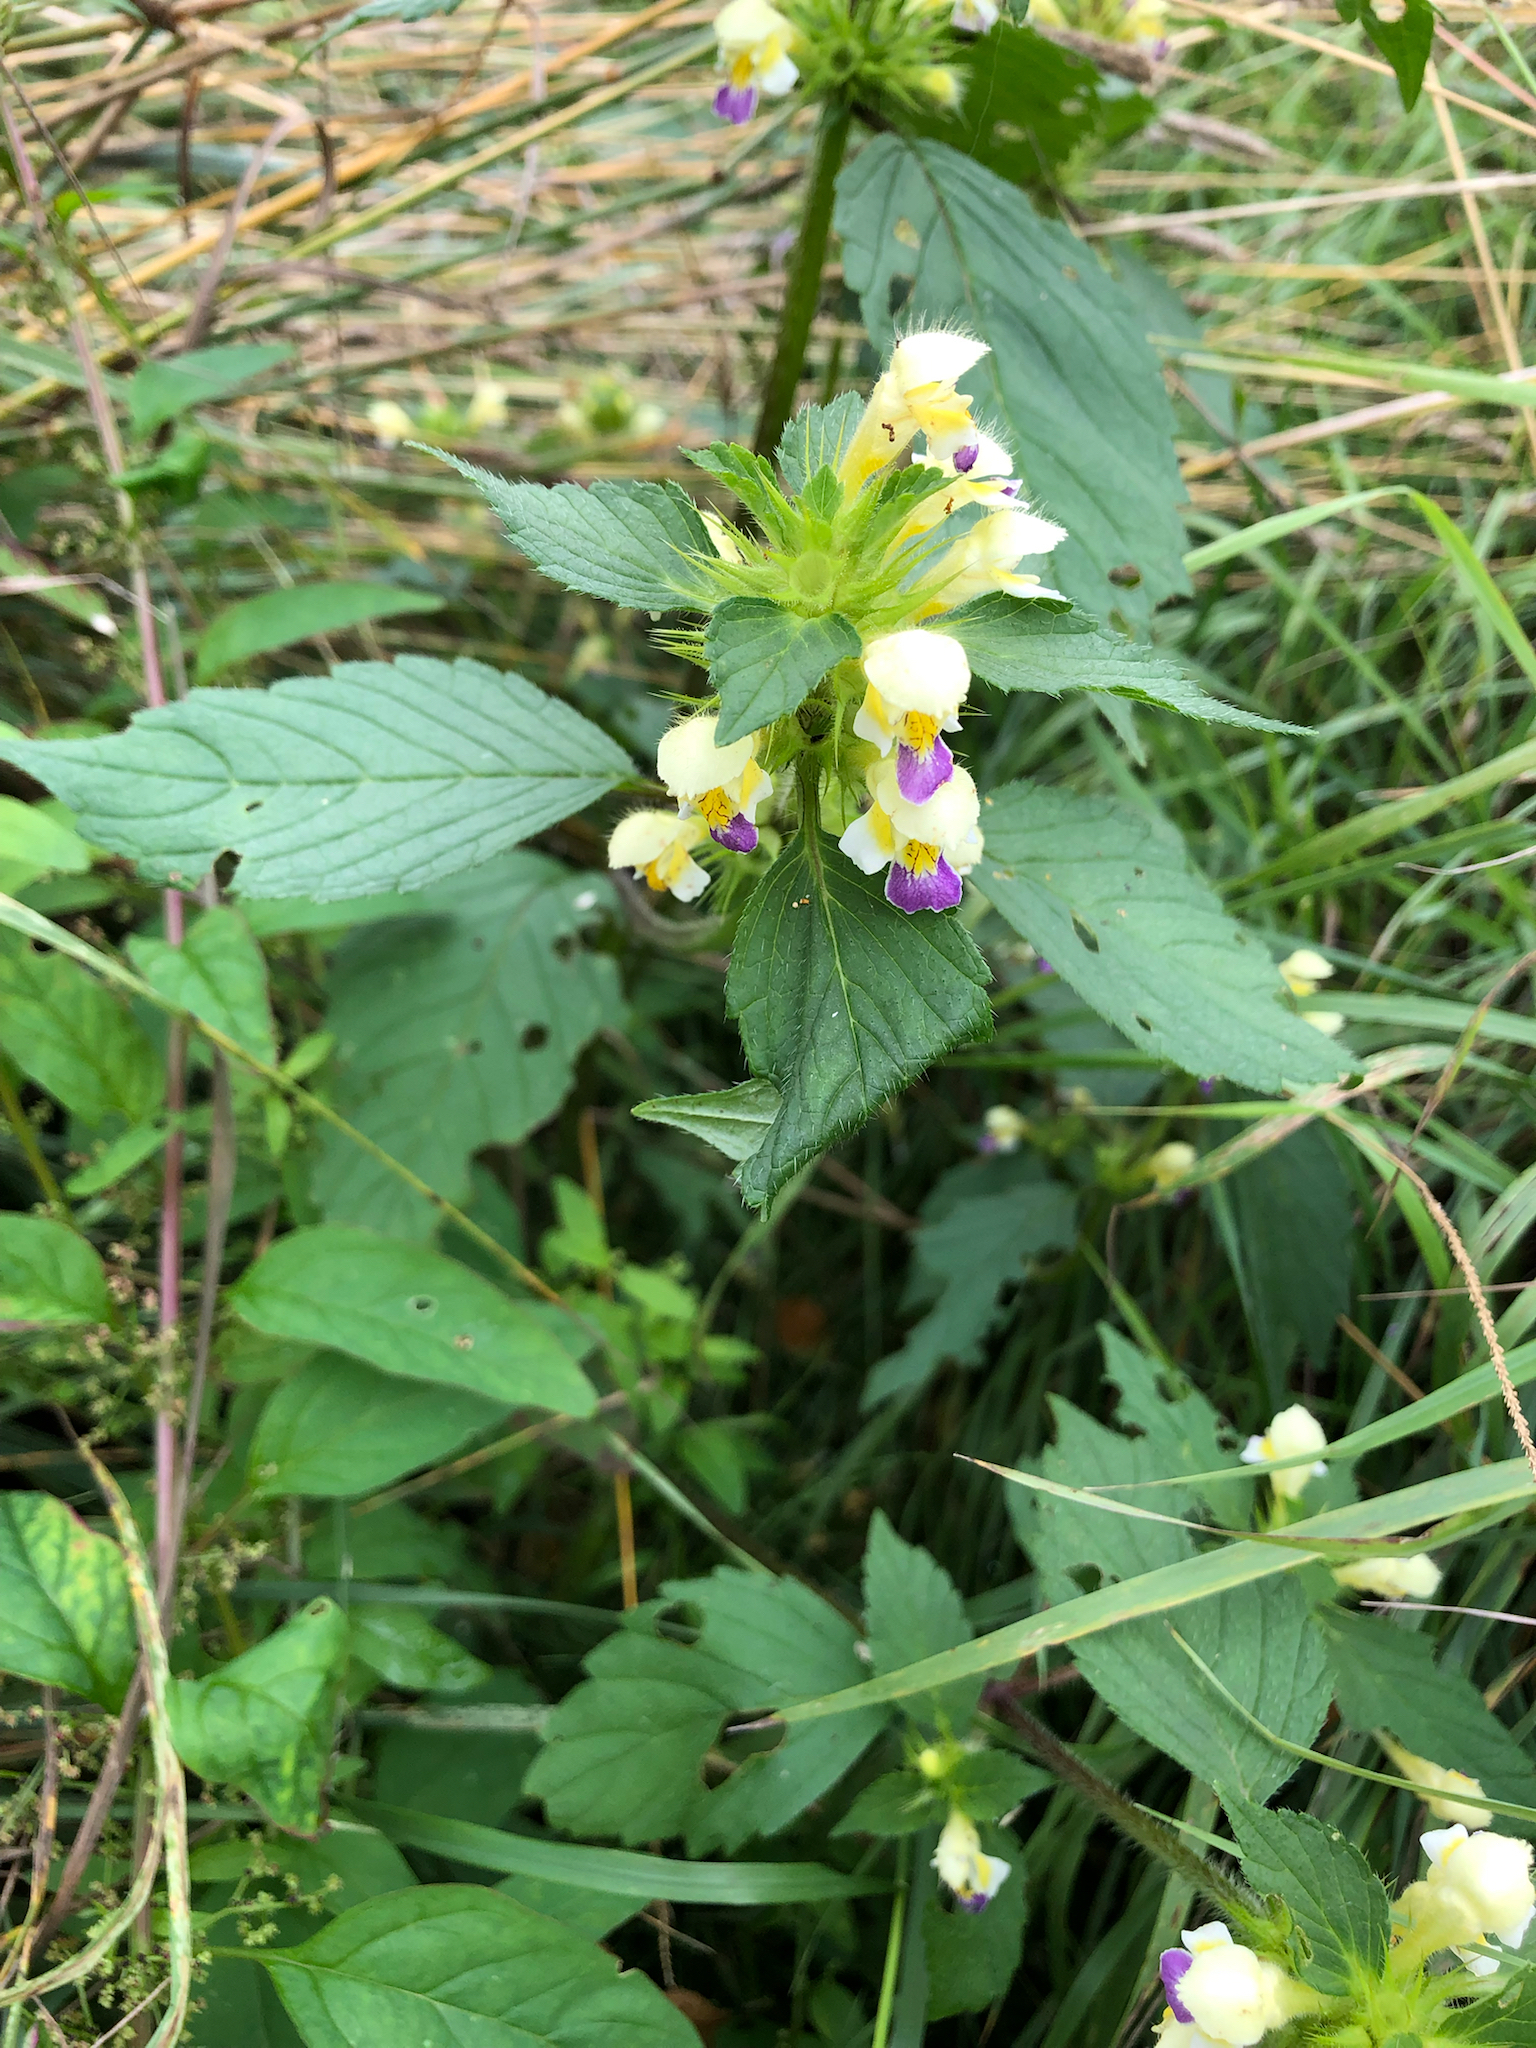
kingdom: Plantae
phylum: Tracheophyta
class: Magnoliopsida
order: Lamiales
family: Lamiaceae
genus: Galeopsis
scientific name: Galeopsis speciosa
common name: Large-flowered hemp-nettle
